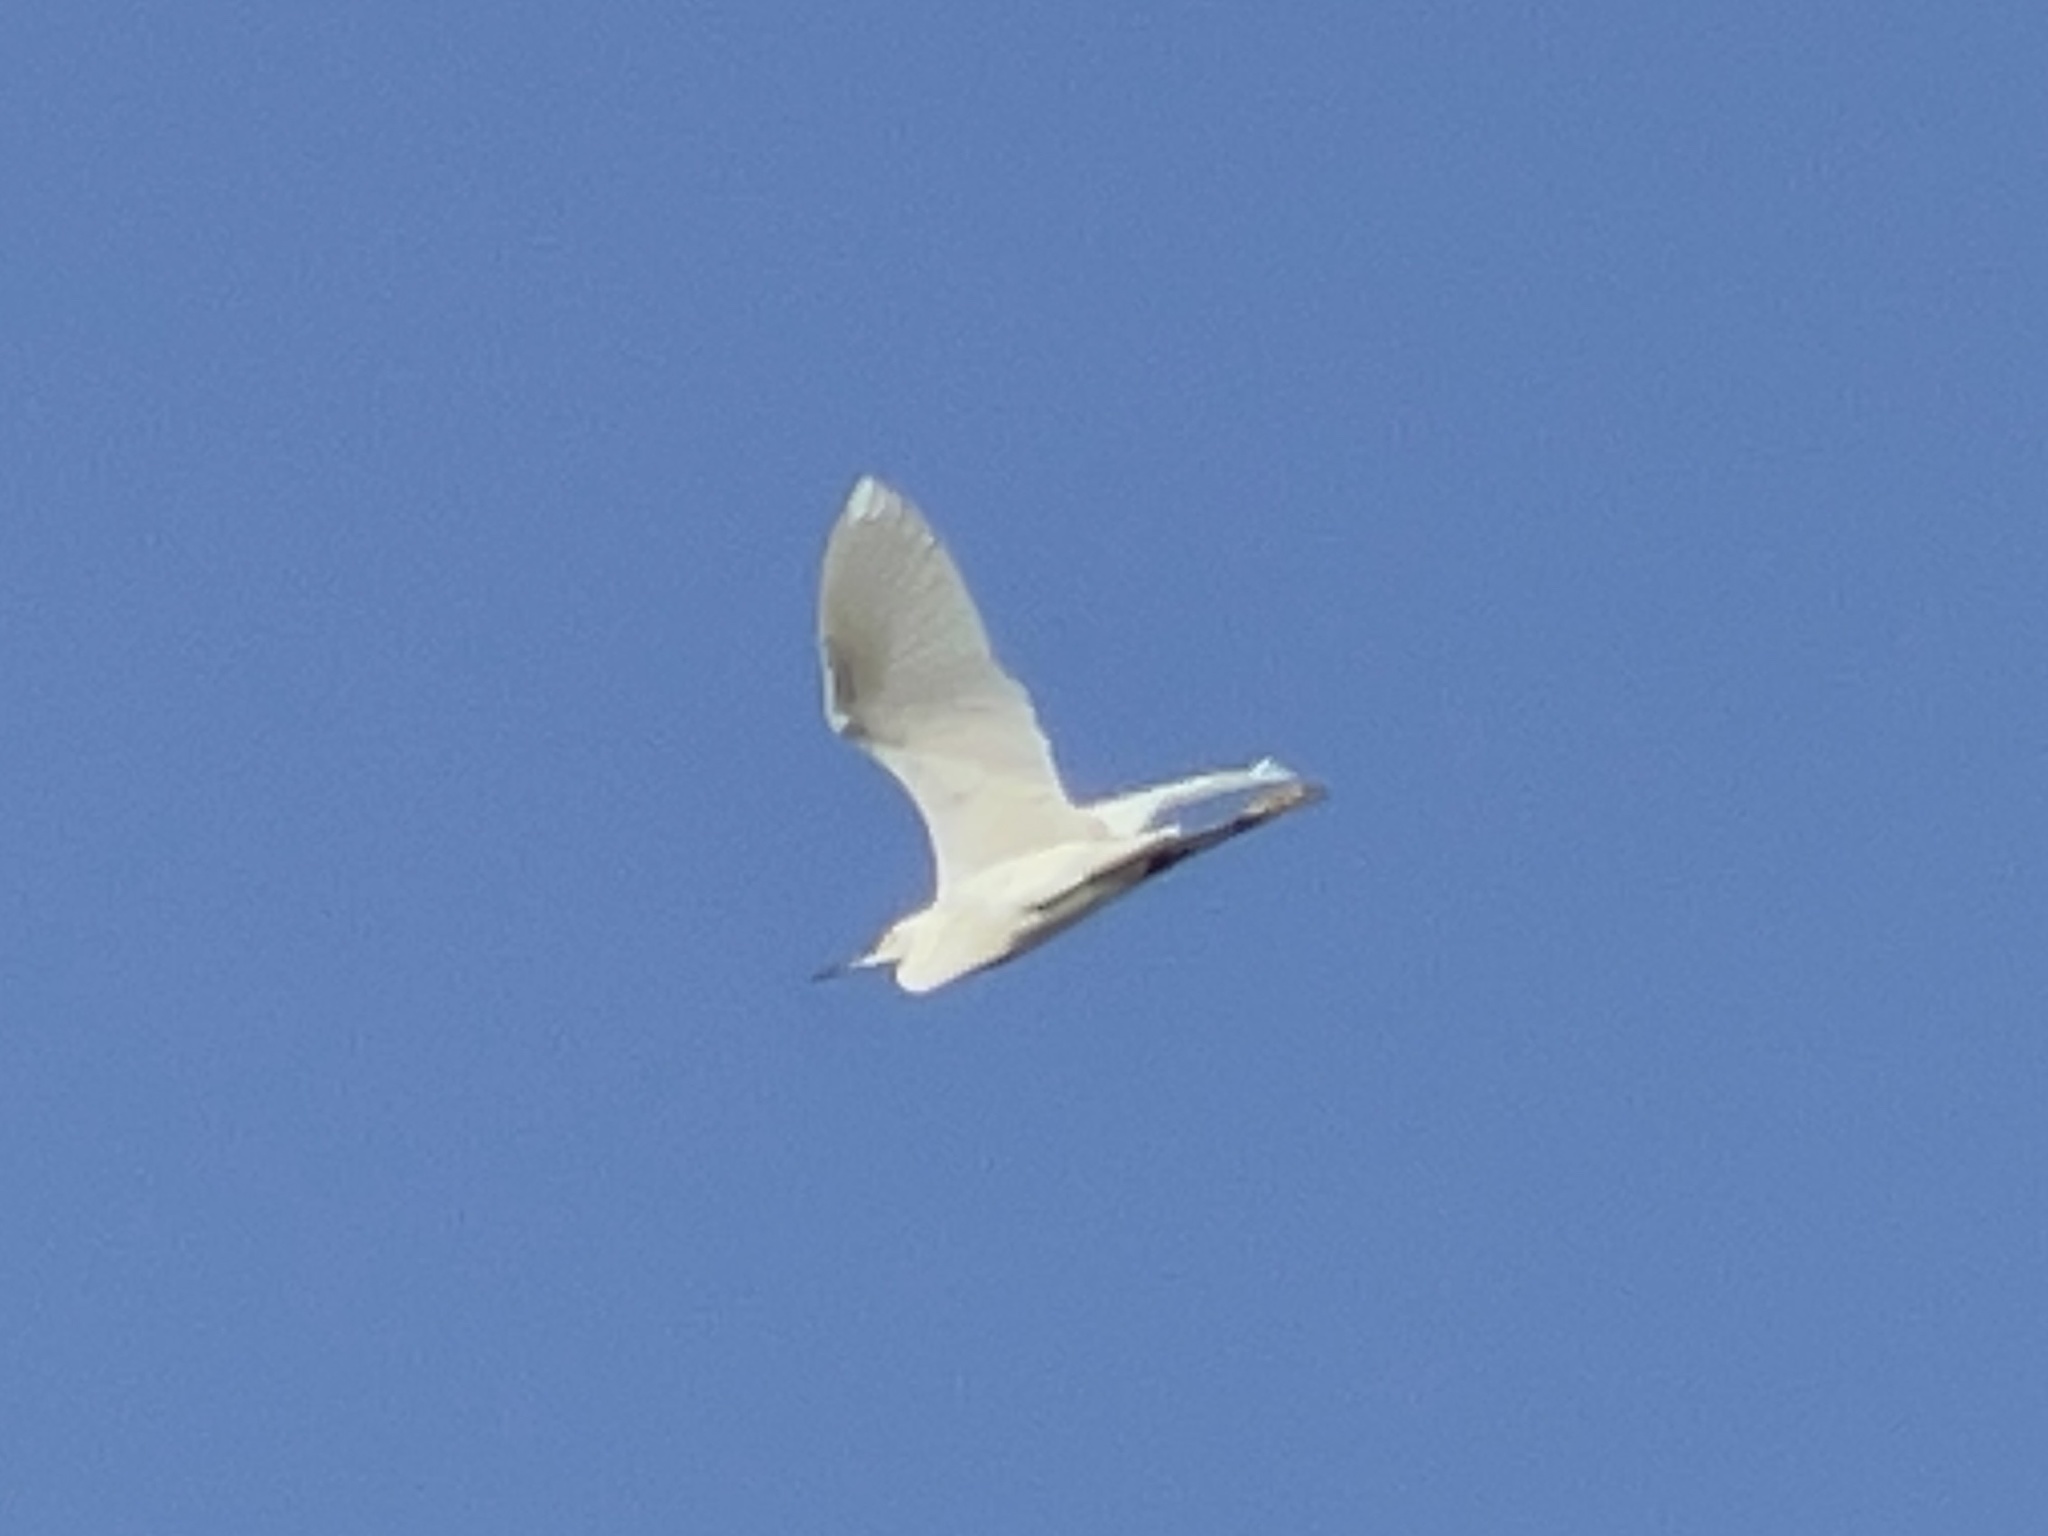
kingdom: Animalia
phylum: Chordata
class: Aves
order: Pelecaniformes
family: Ardeidae
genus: Egretta
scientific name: Egretta thula
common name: Snowy egret
